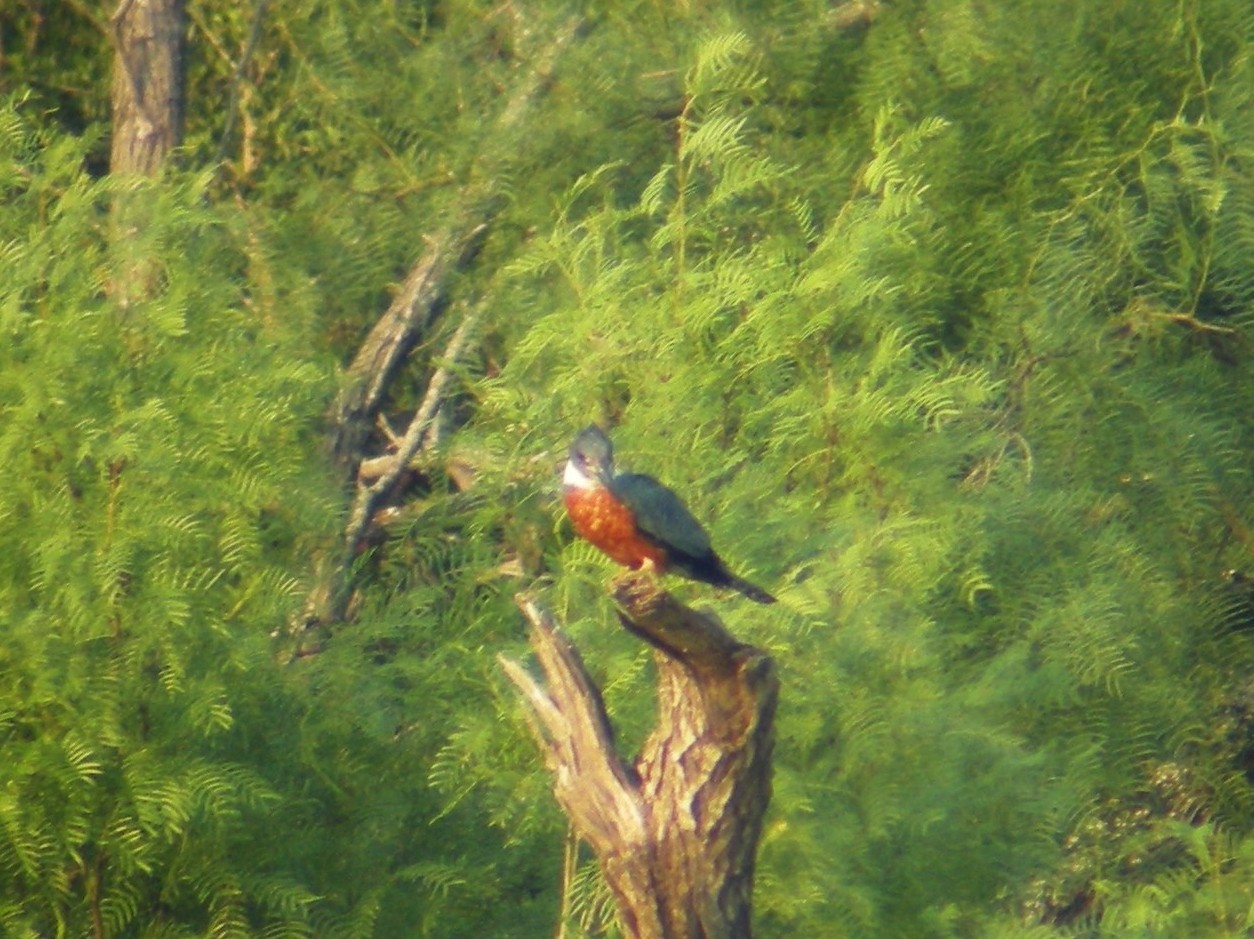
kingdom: Animalia
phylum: Chordata
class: Aves
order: Coraciiformes
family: Alcedinidae
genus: Megaceryle
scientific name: Megaceryle torquata
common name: Ringed kingfisher
